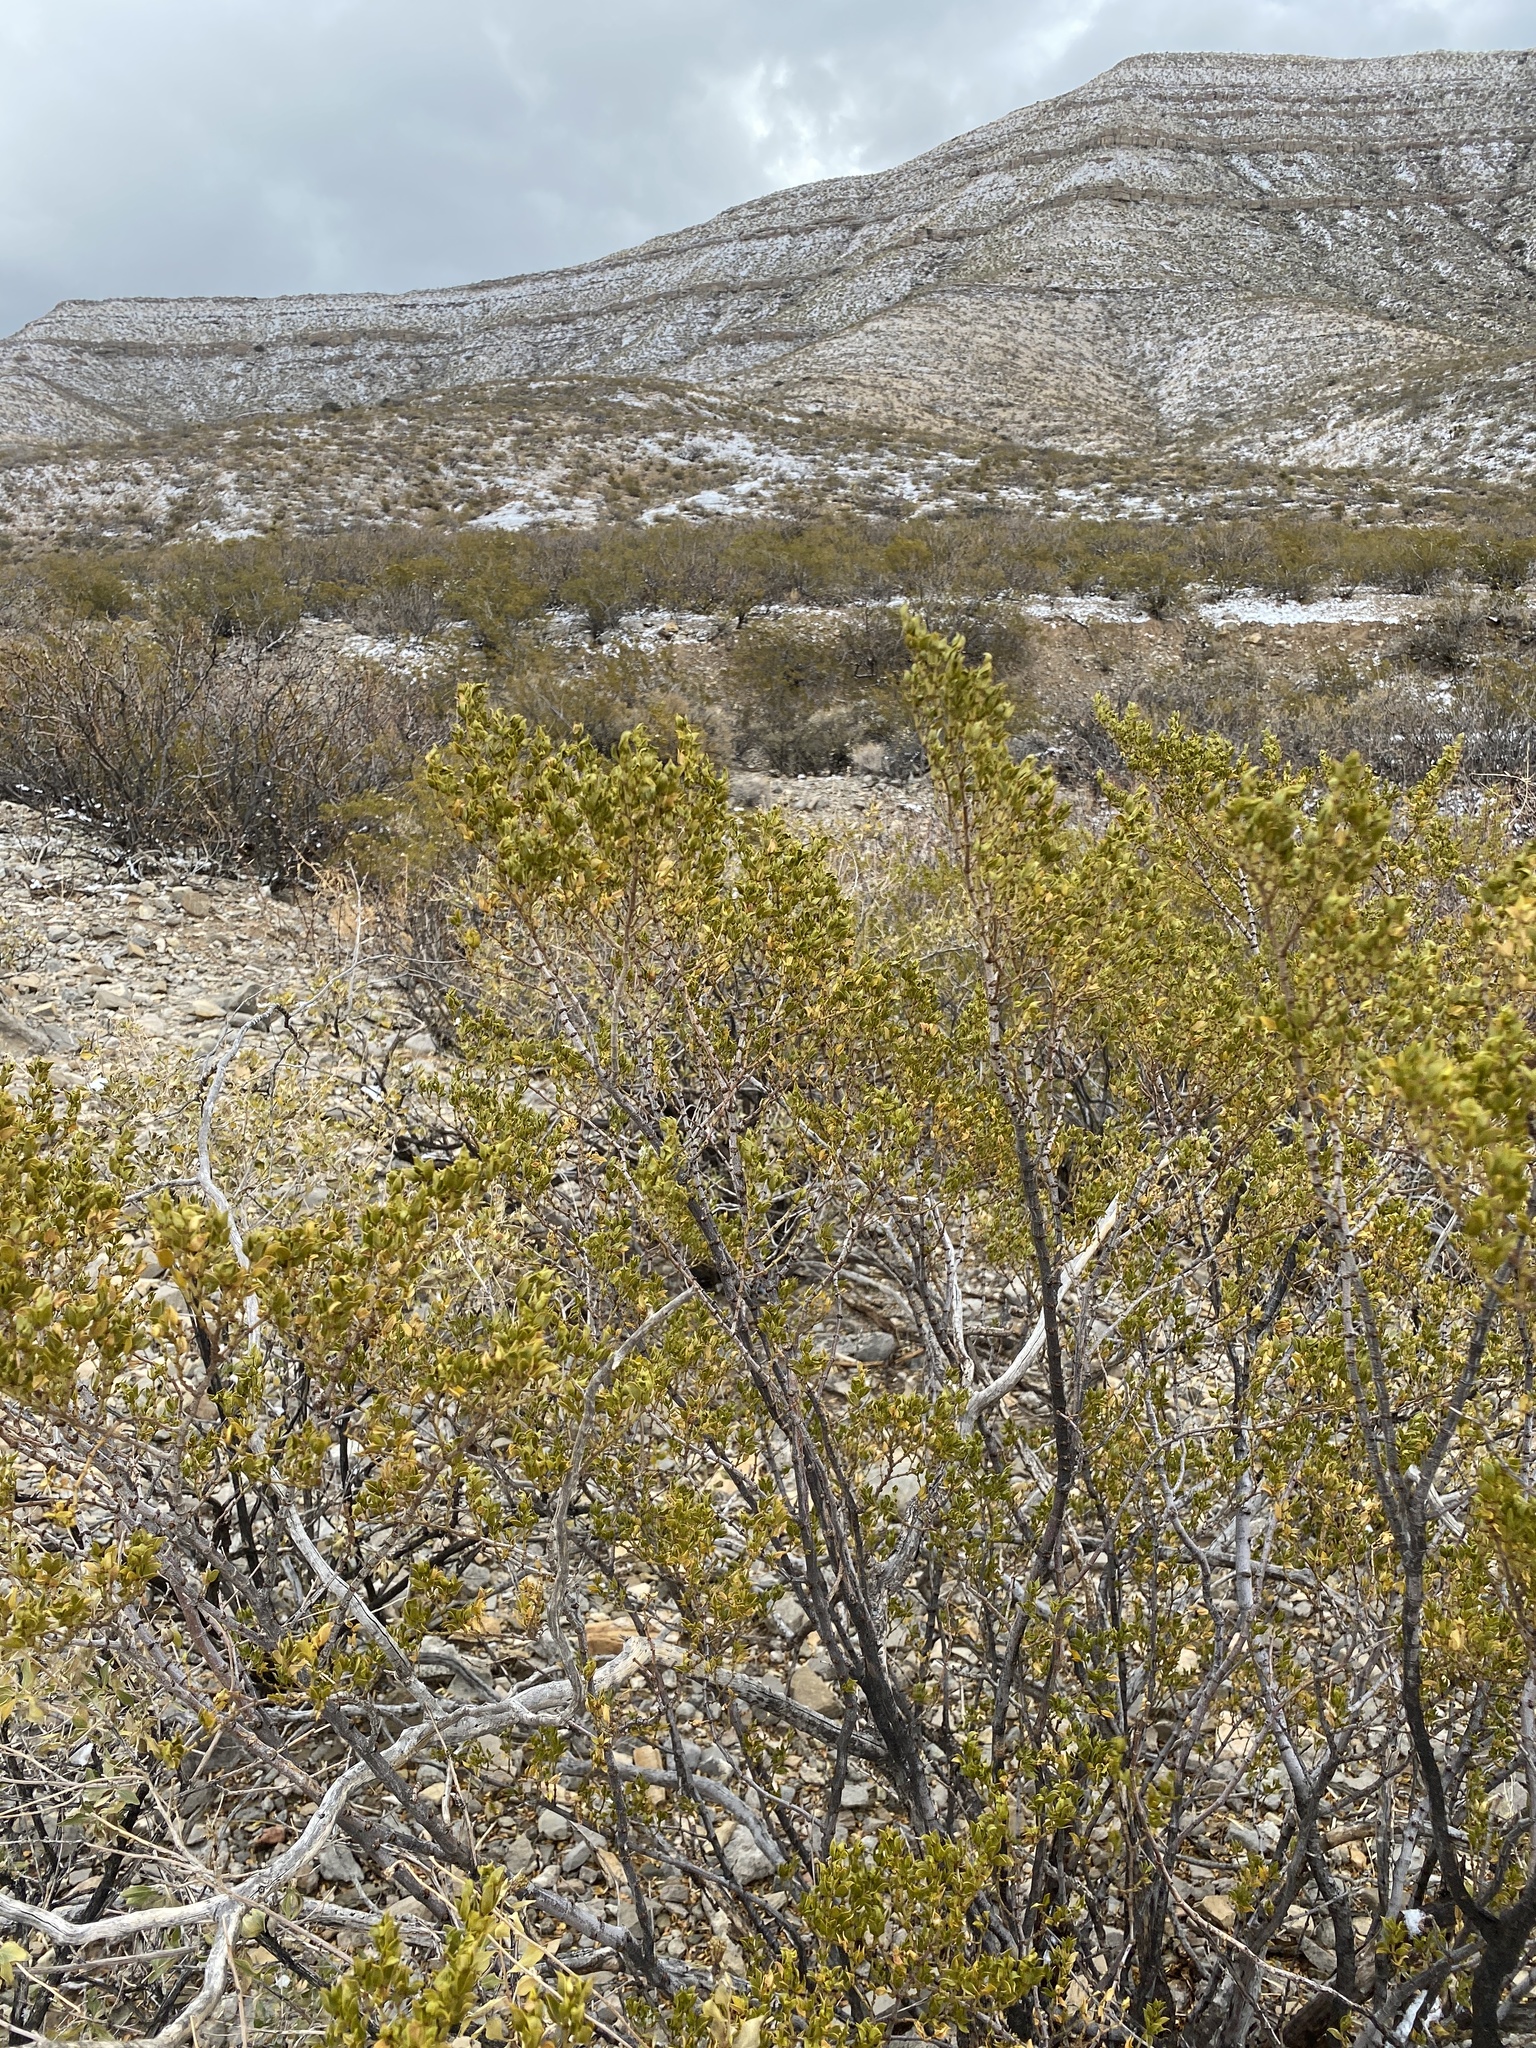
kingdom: Plantae
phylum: Tracheophyta
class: Magnoliopsida
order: Zygophyllales
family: Zygophyllaceae
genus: Larrea
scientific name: Larrea tridentata
